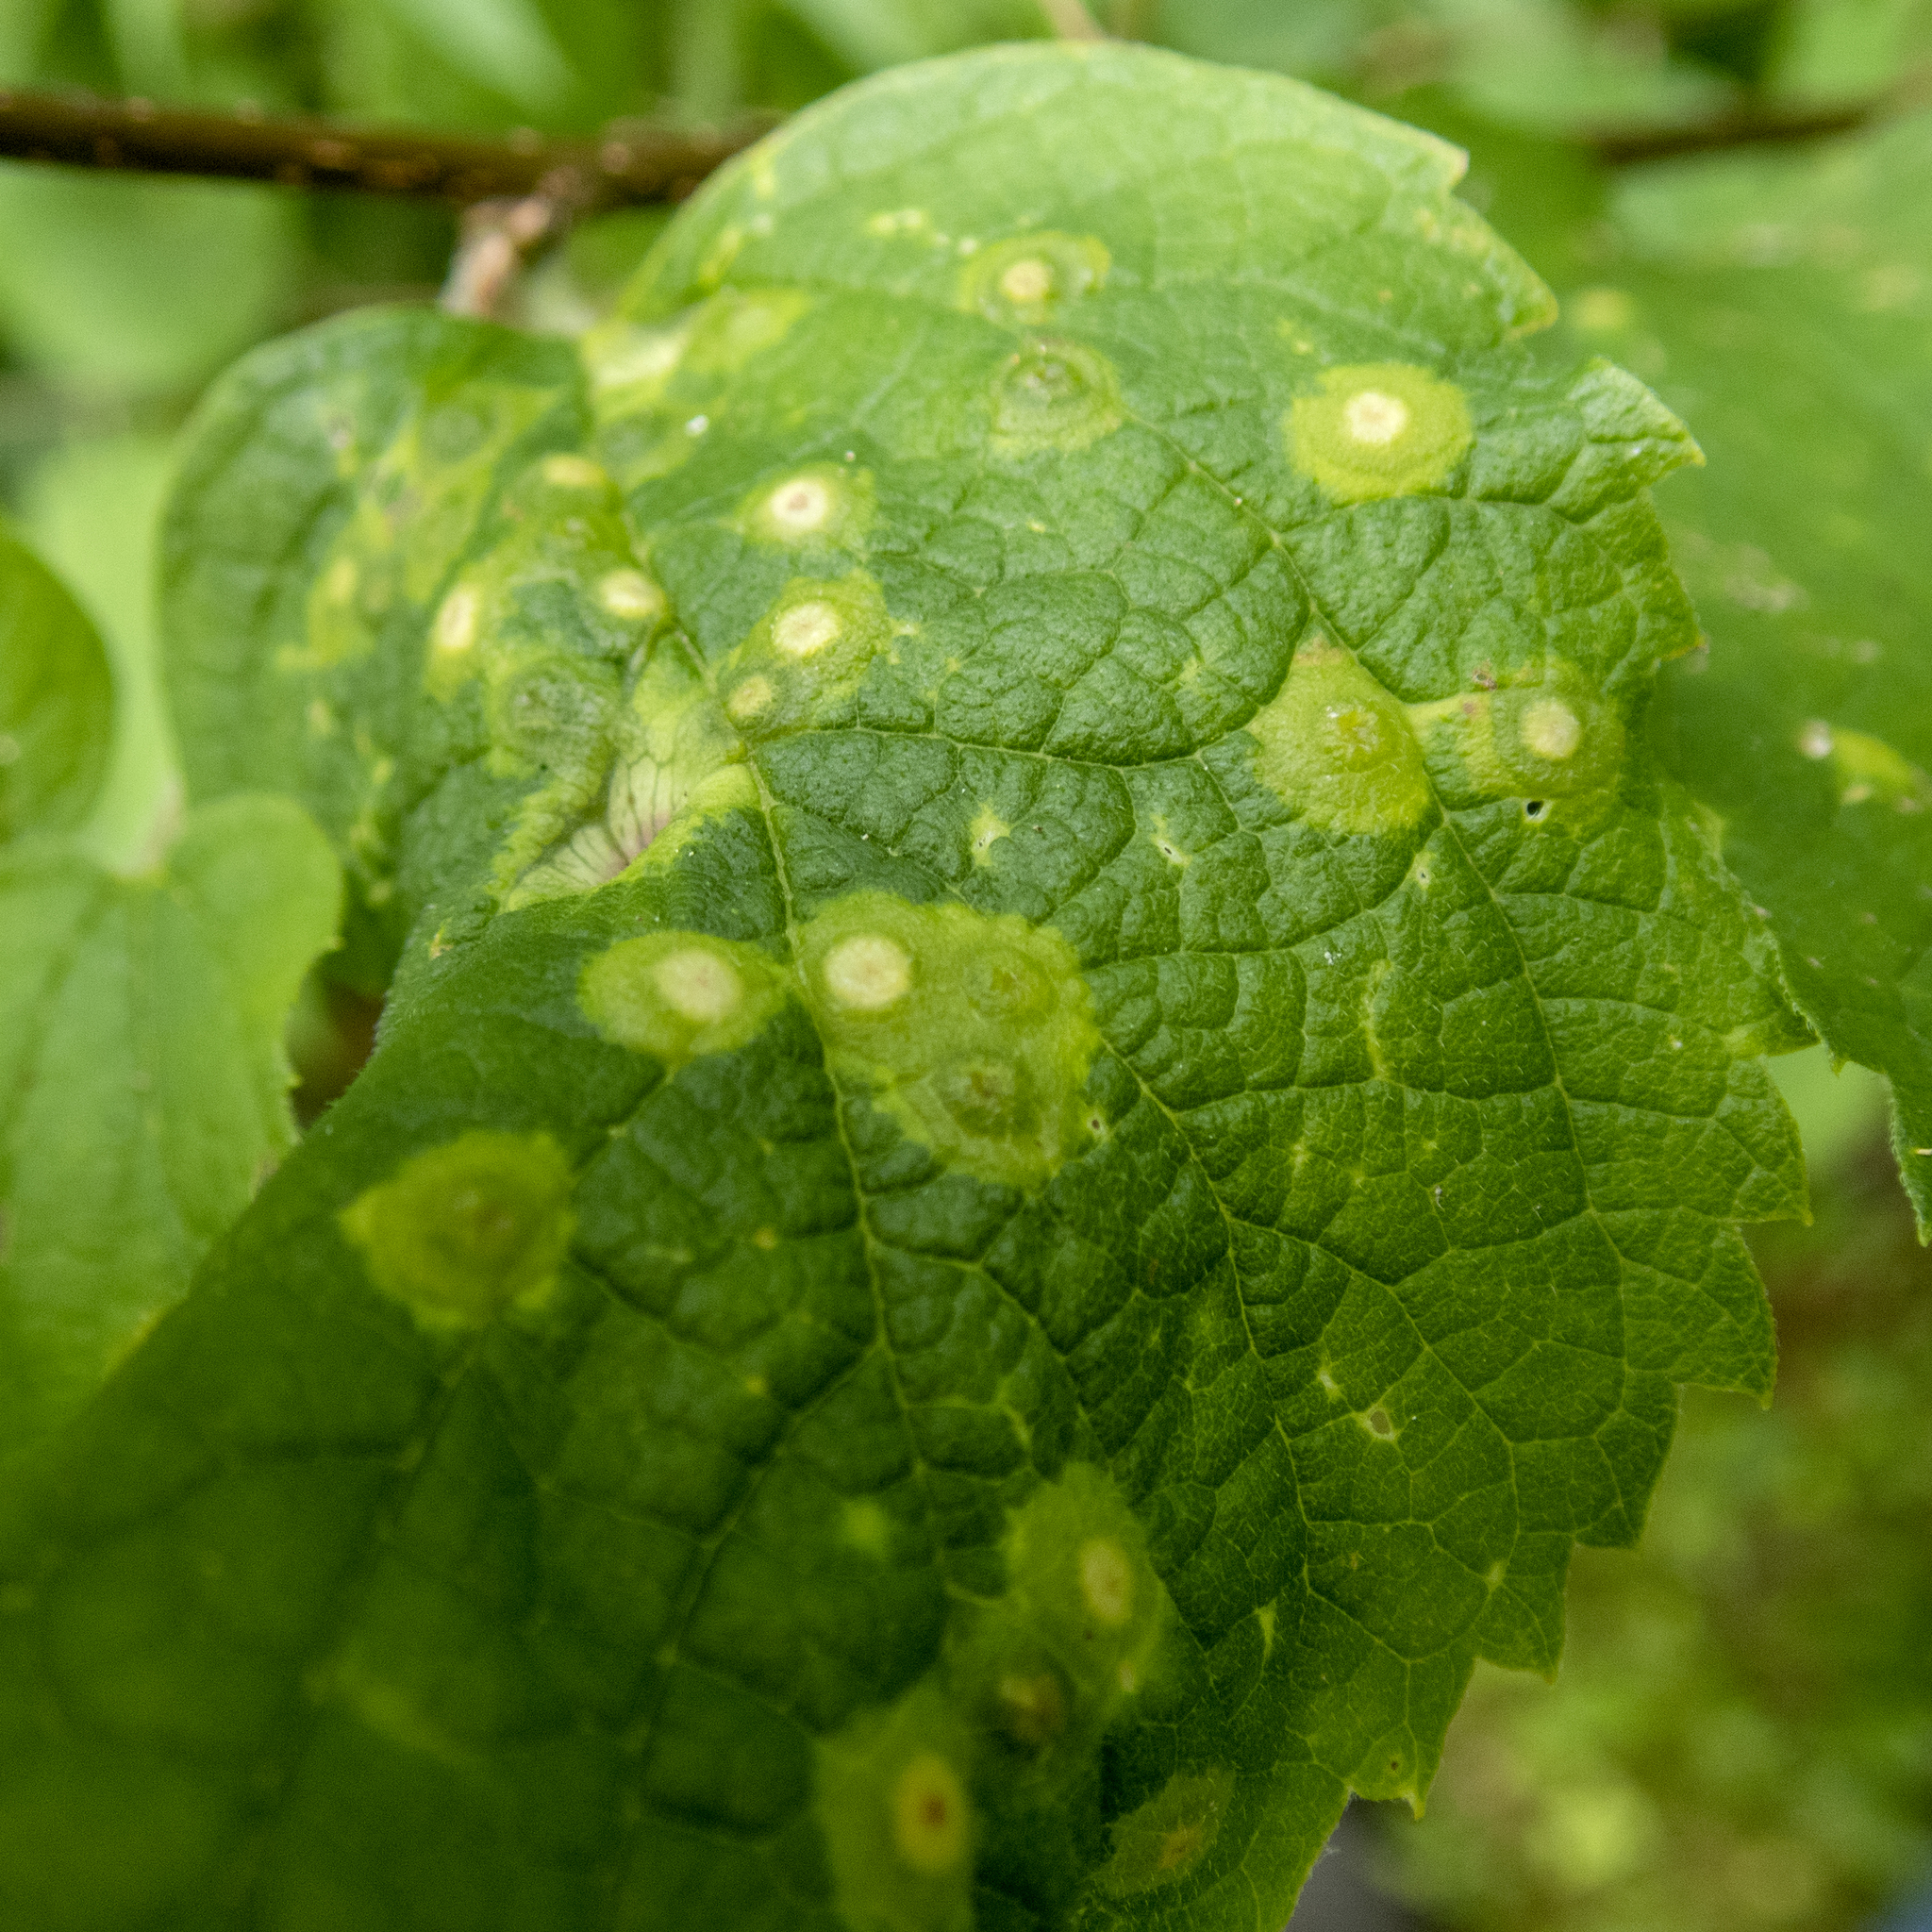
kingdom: Animalia
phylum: Arthropoda
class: Insecta
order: Hemiptera
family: Aphalaridae
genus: Pachypsylla
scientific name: Pachypsylla celtidismamma
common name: Hackberry nipplegall psyllid
